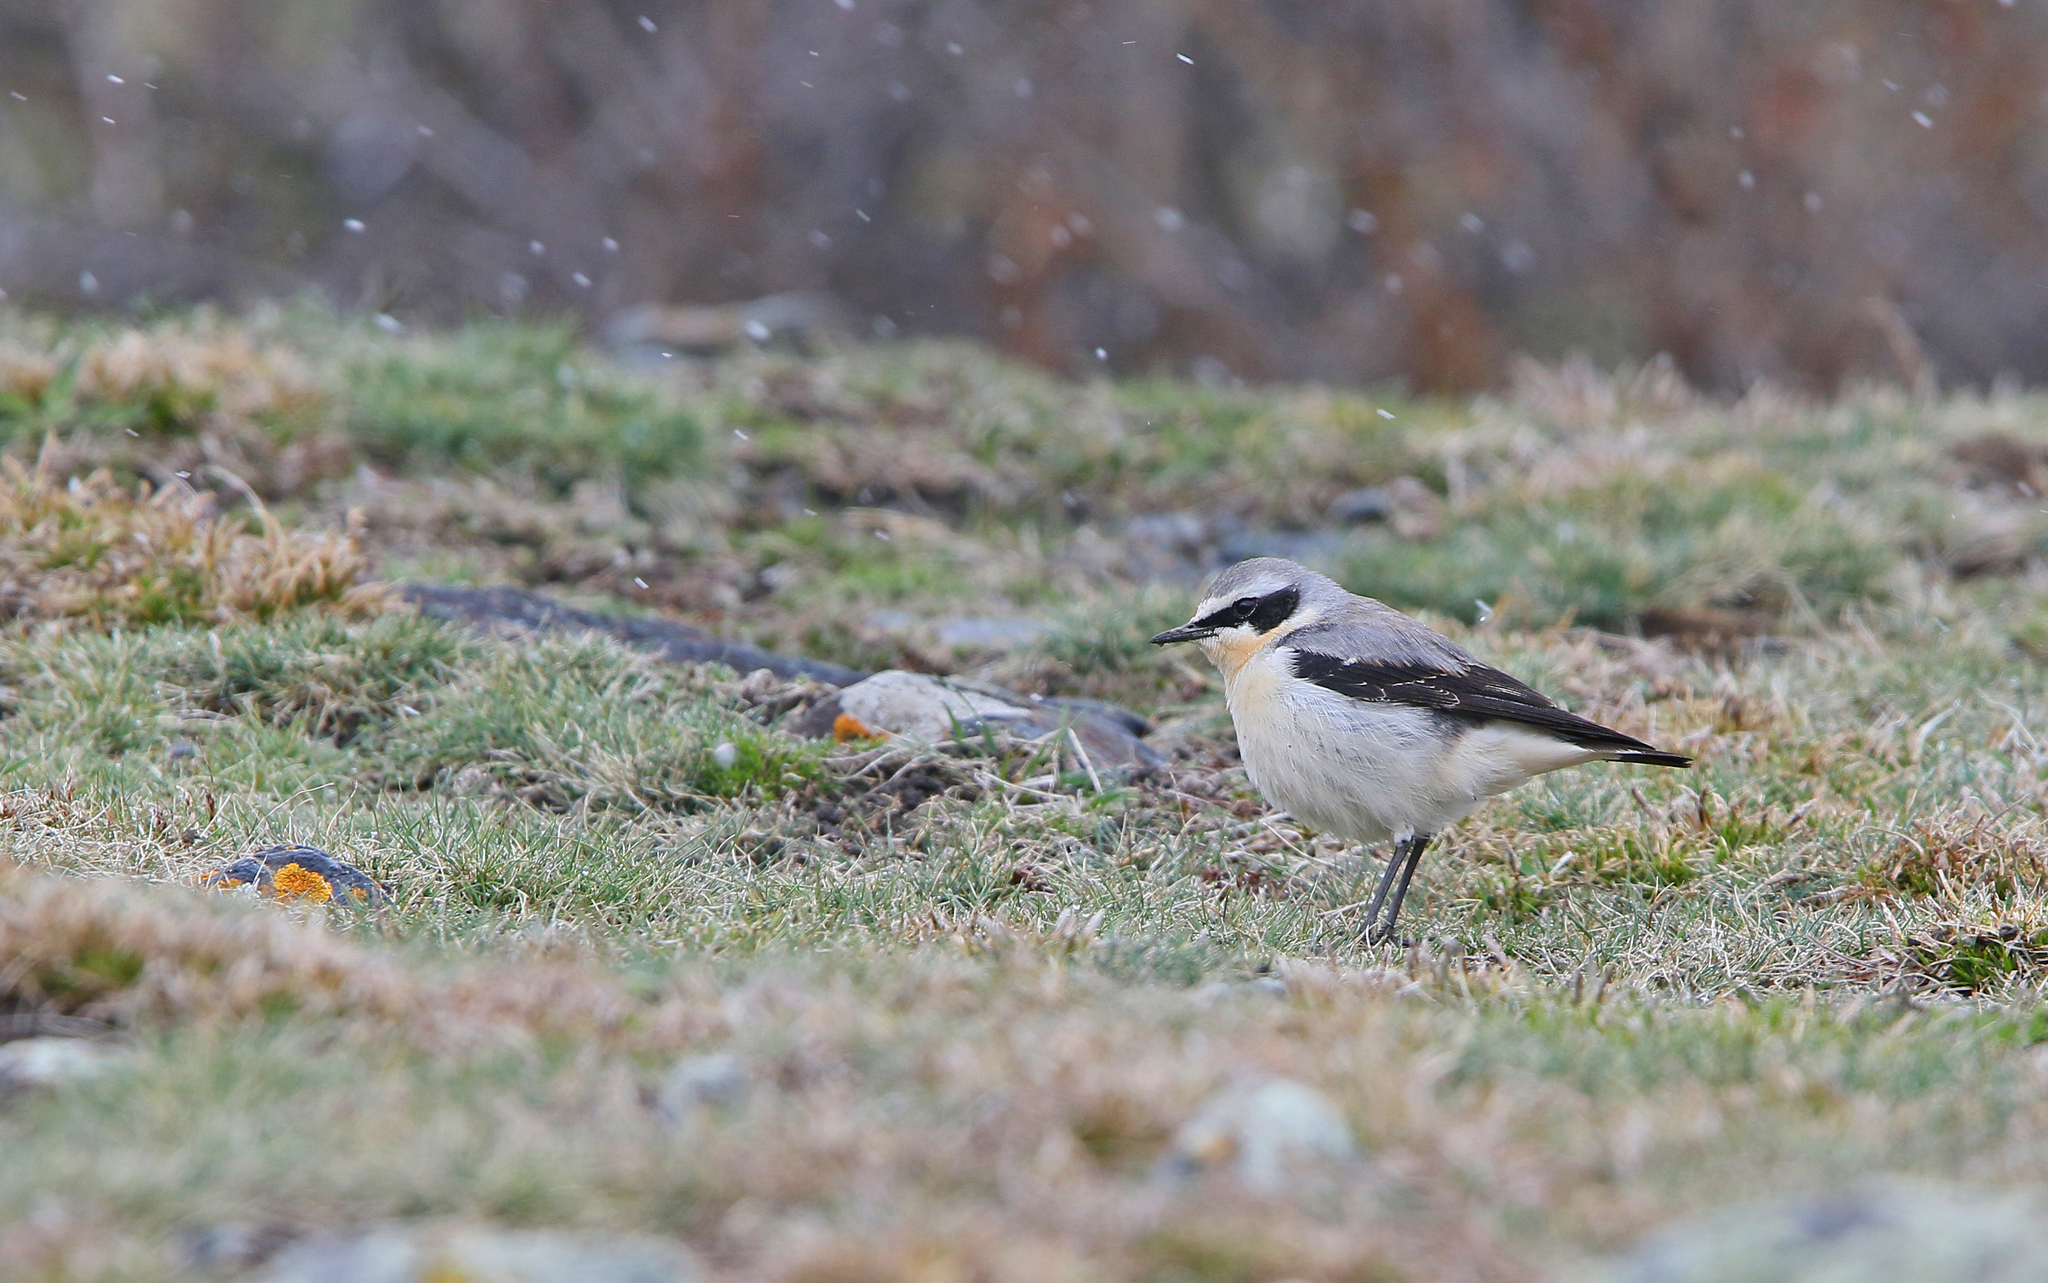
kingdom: Animalia
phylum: Chordata
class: Aves
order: Passeriformes
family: Muscicapidae
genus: Oenanthe
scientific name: Oenanthe oenanthe
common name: Northern wheatear
